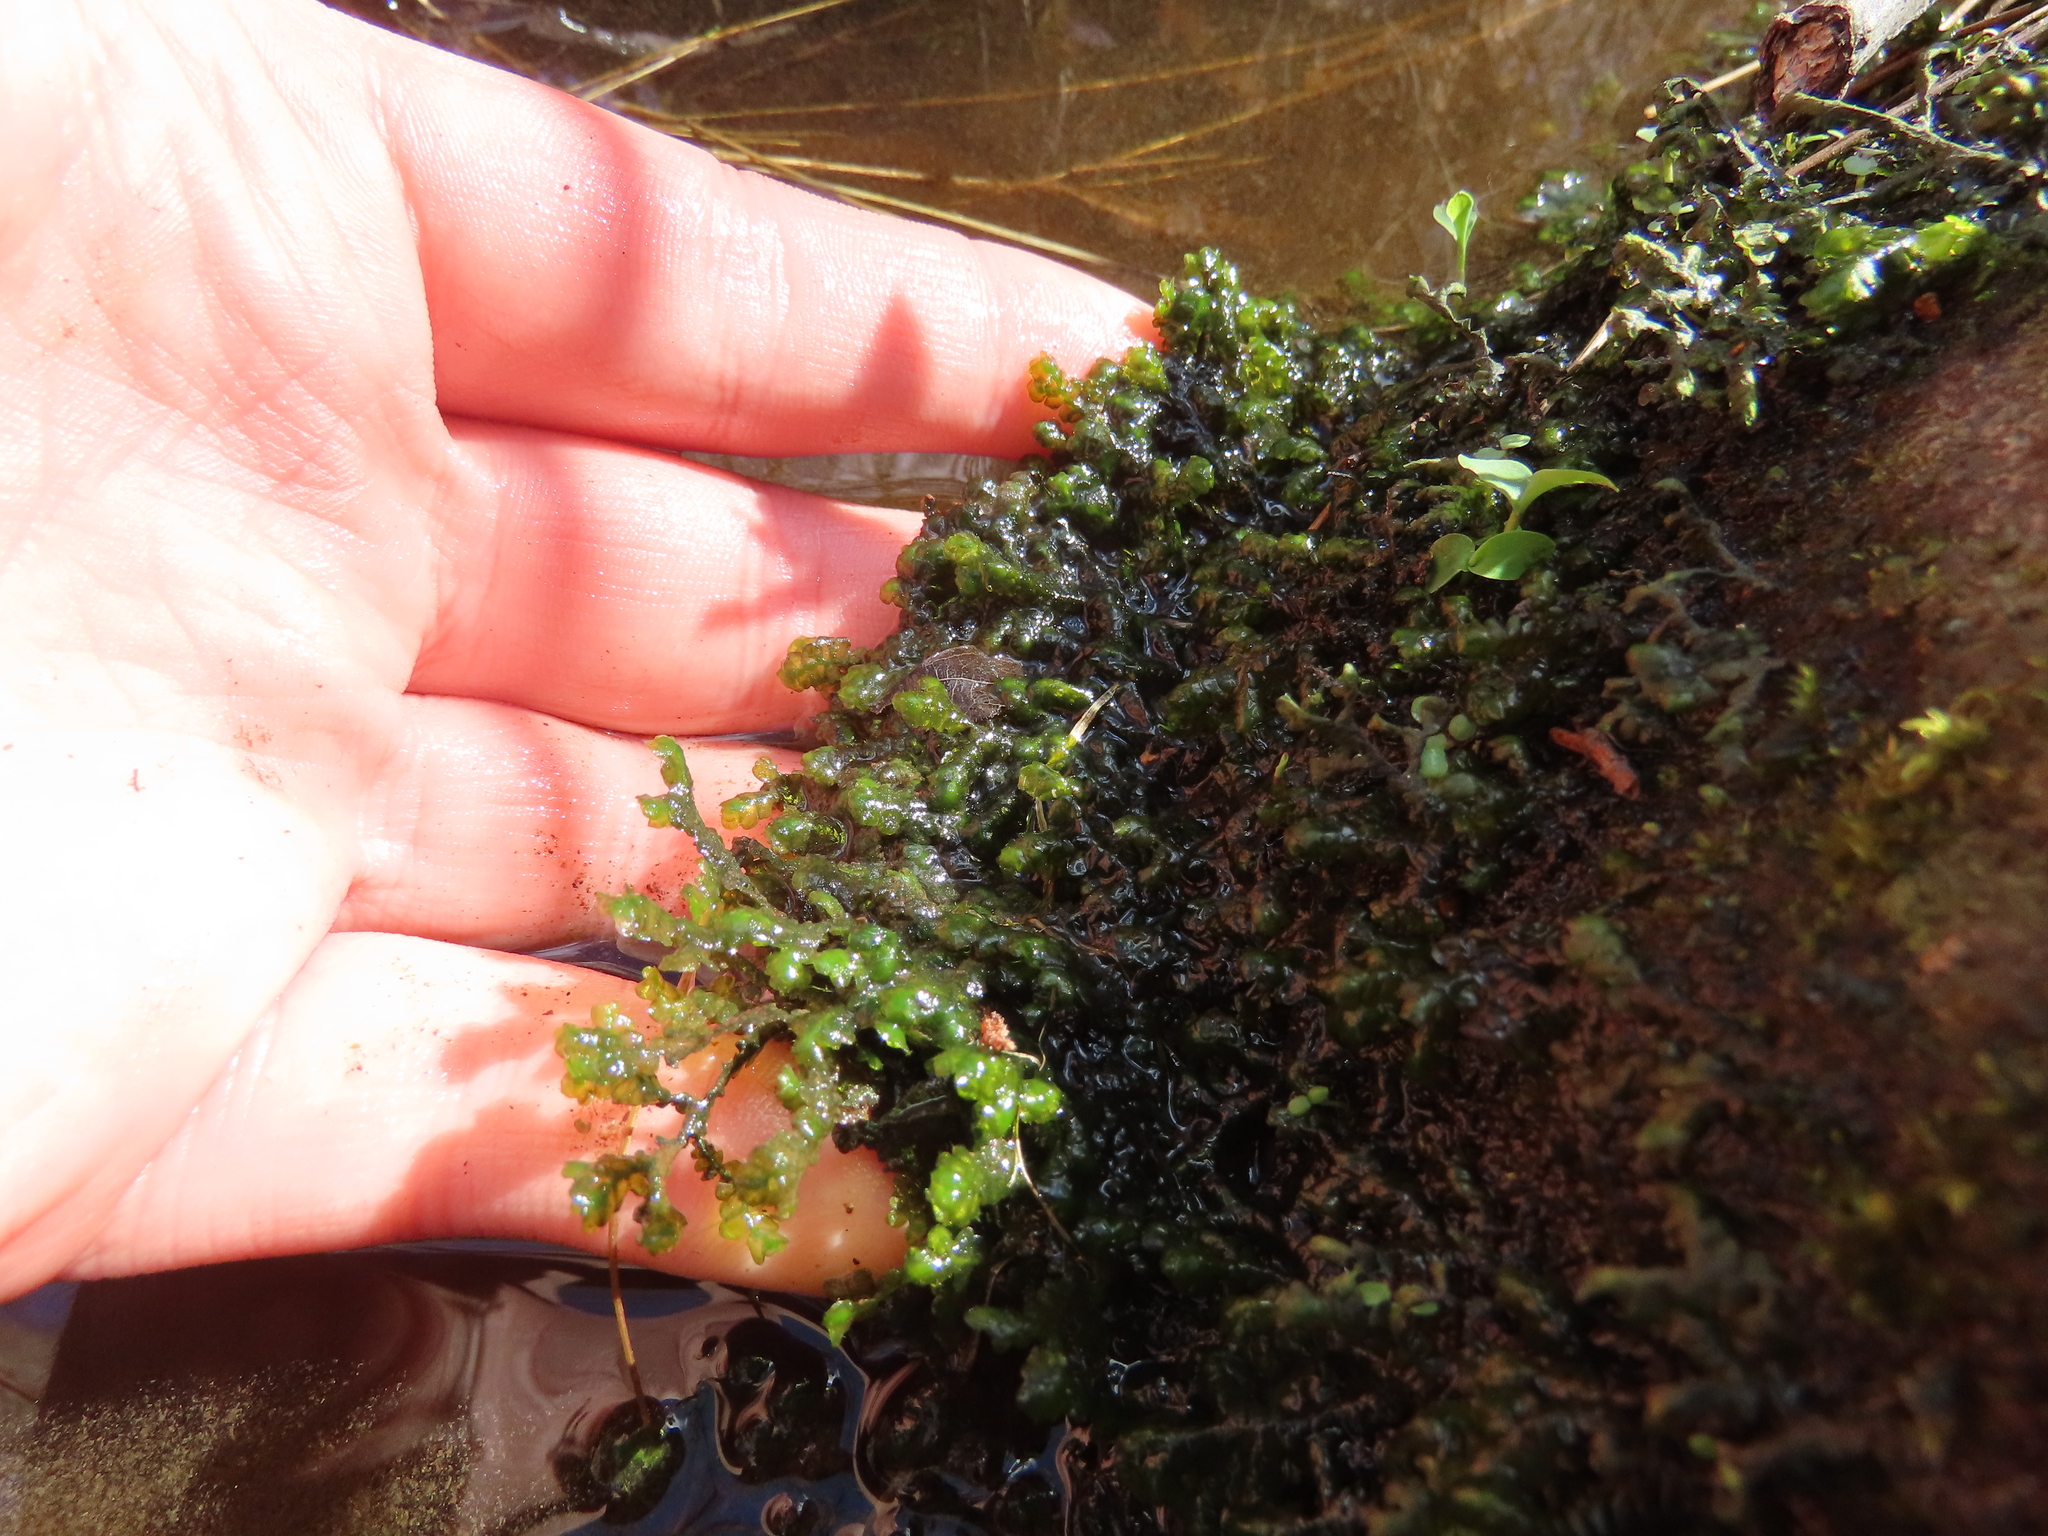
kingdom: Plantae
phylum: Marchantiophyta
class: Jungermanniopsida
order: Porellales
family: Porellaceae
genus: Porella
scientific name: Porella pinnata
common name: Pinnate scalewort
